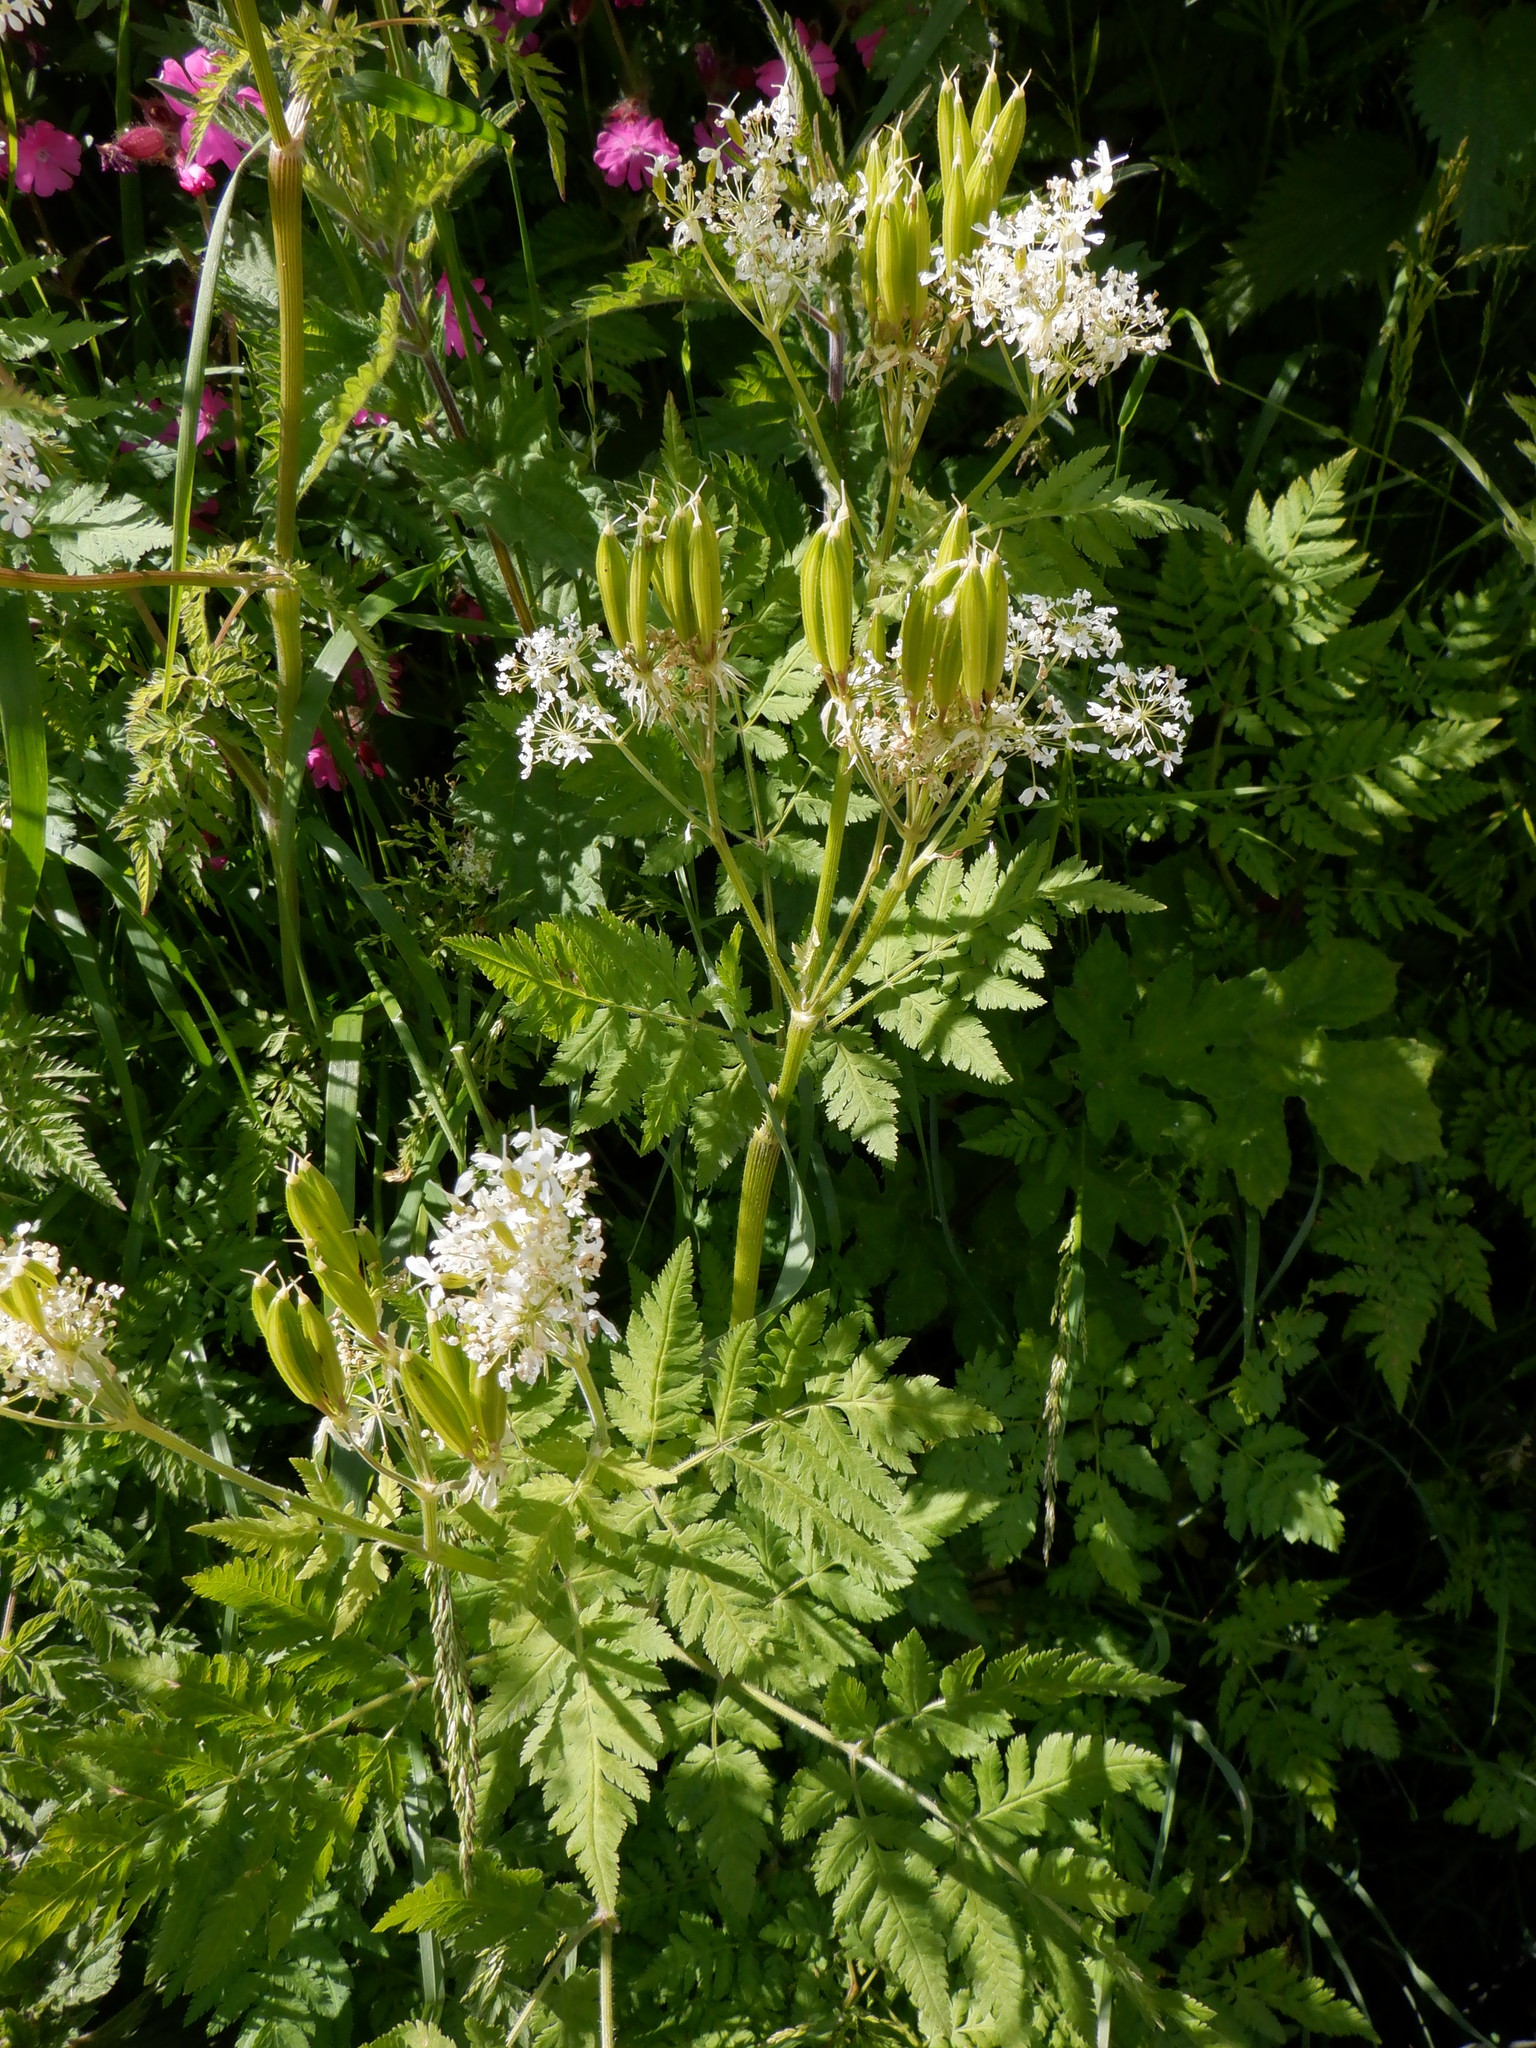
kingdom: Plantae
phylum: Tracheophyta
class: Magnoliopsida
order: Apiales
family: Apiaceae
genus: Myrrhis
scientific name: Myrrhis odorata
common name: Sweet cicely
